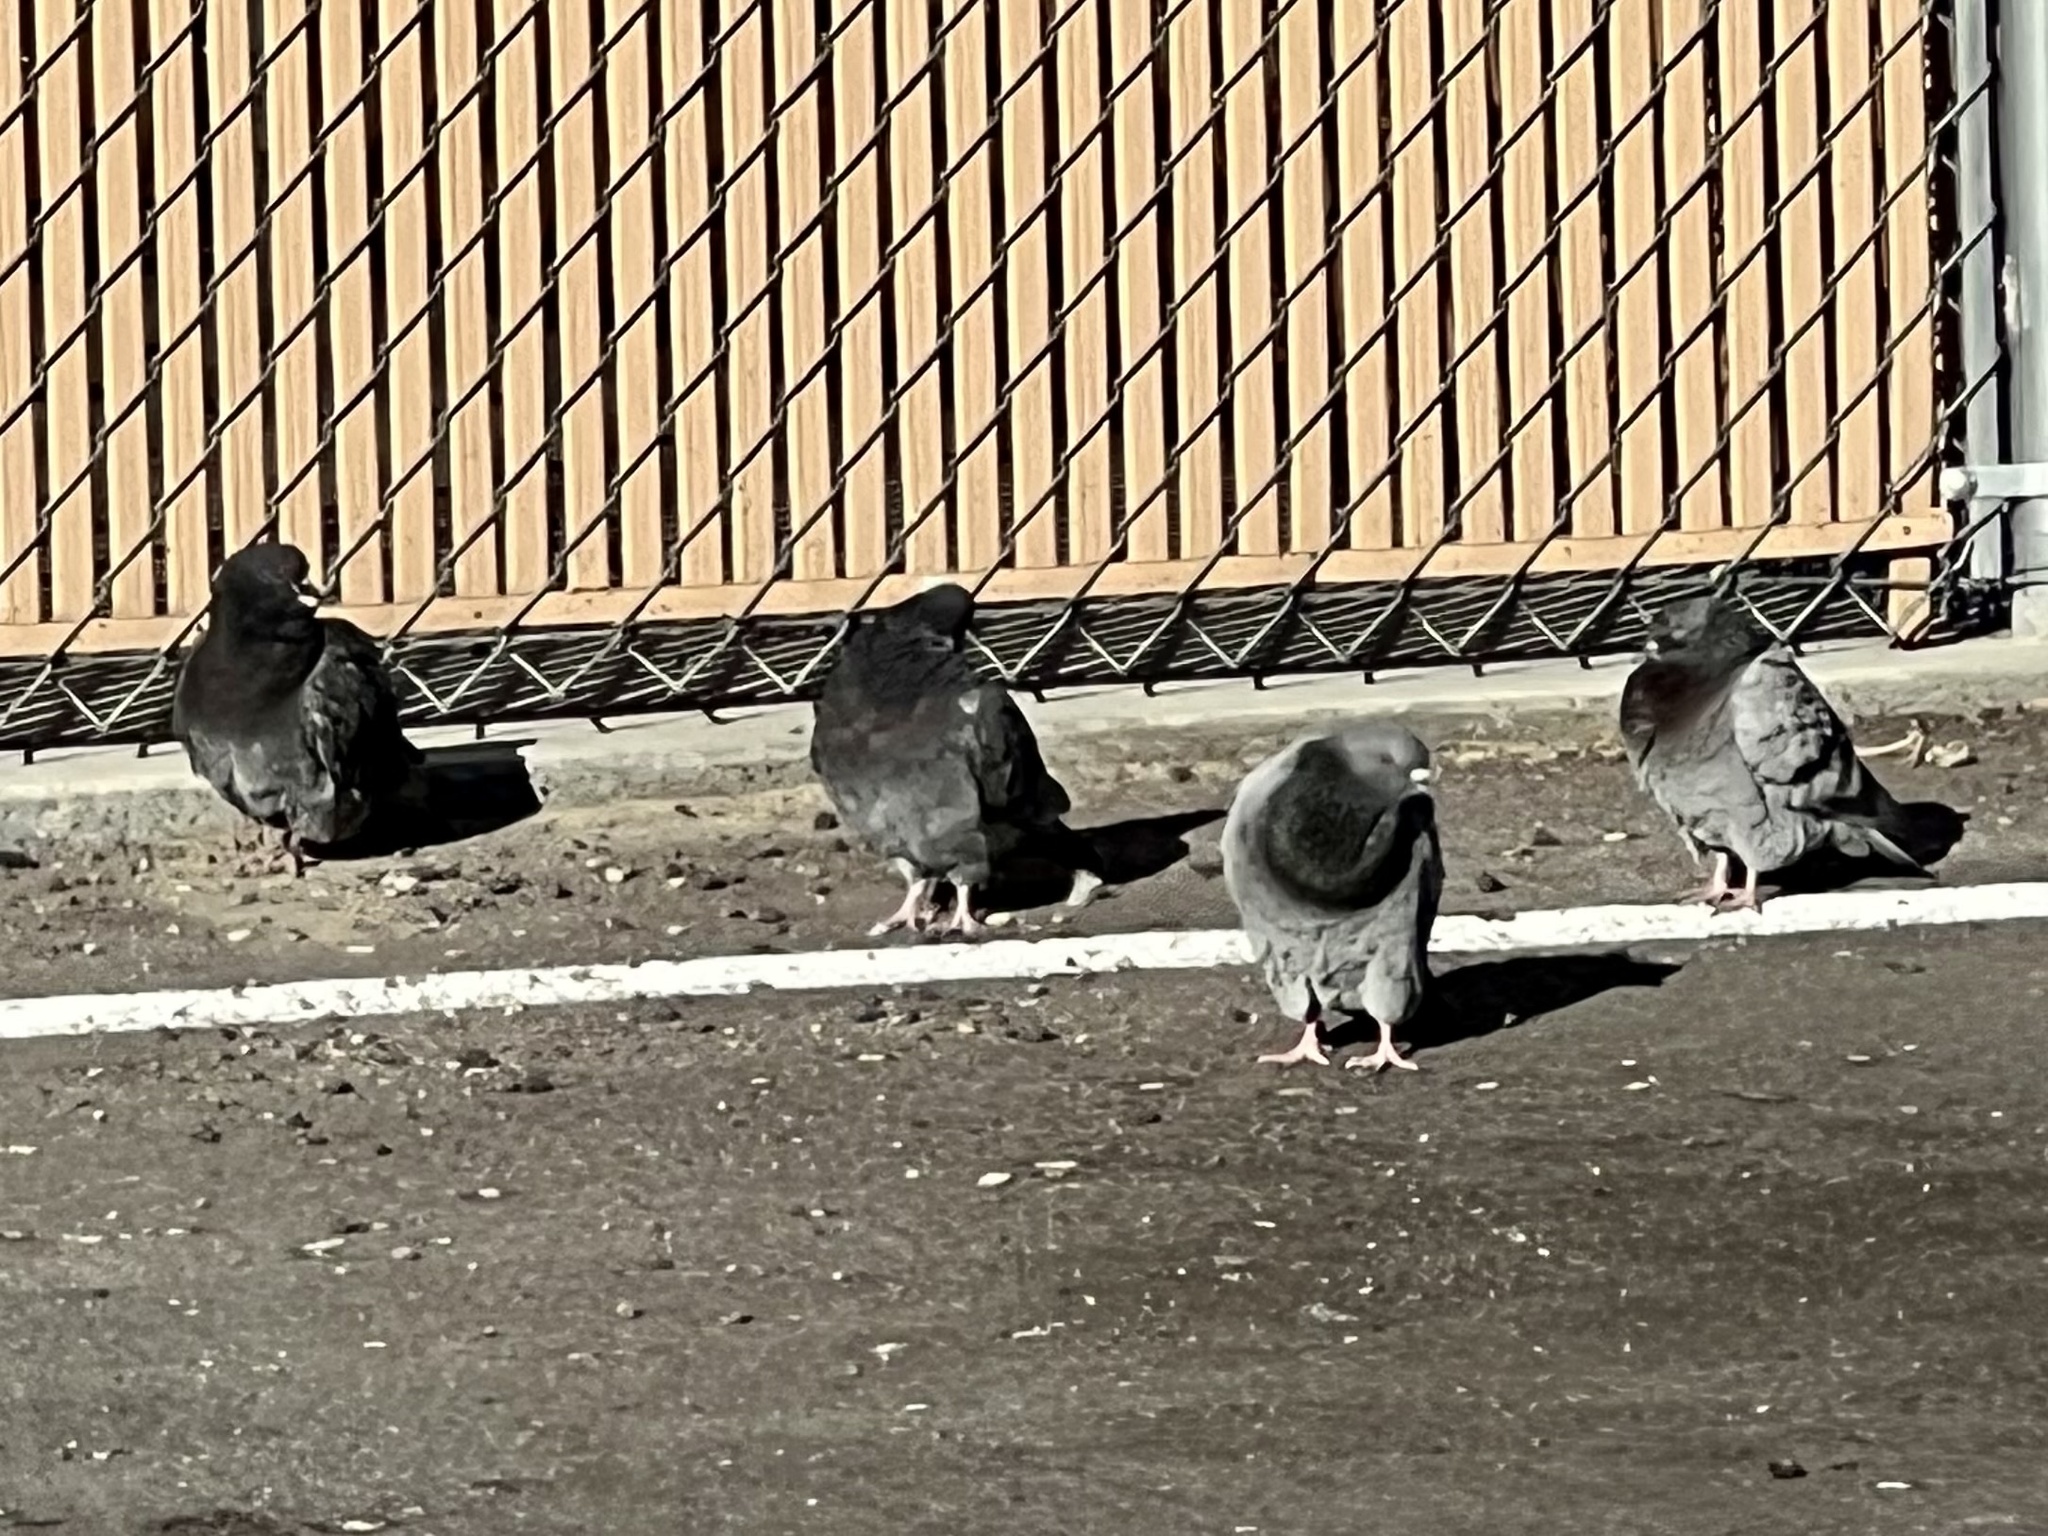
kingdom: Animalia
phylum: Chordata
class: Aves
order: Columbiformes
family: Columbidae
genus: Columba
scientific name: Columba livia
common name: Rock pigeon
